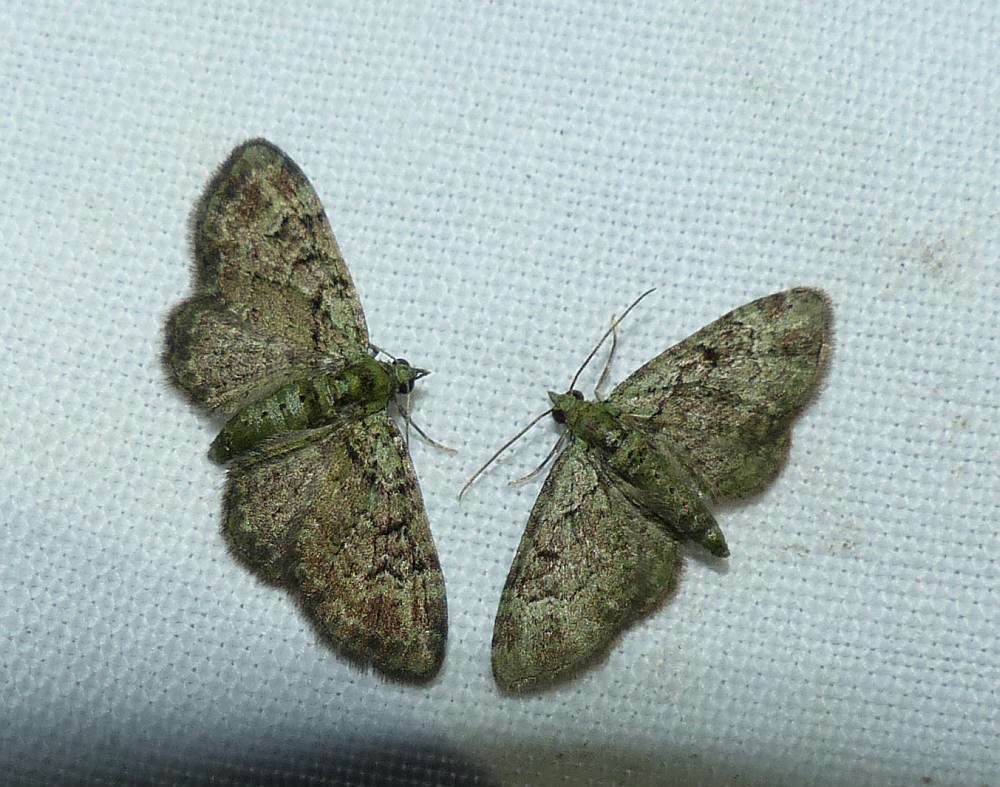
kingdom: Animalia
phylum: Arthropoda
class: Insecta
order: Lepidoptera
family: Geometridae
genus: Pasiphila
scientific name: Pasiphila rectangulata
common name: Green pug
